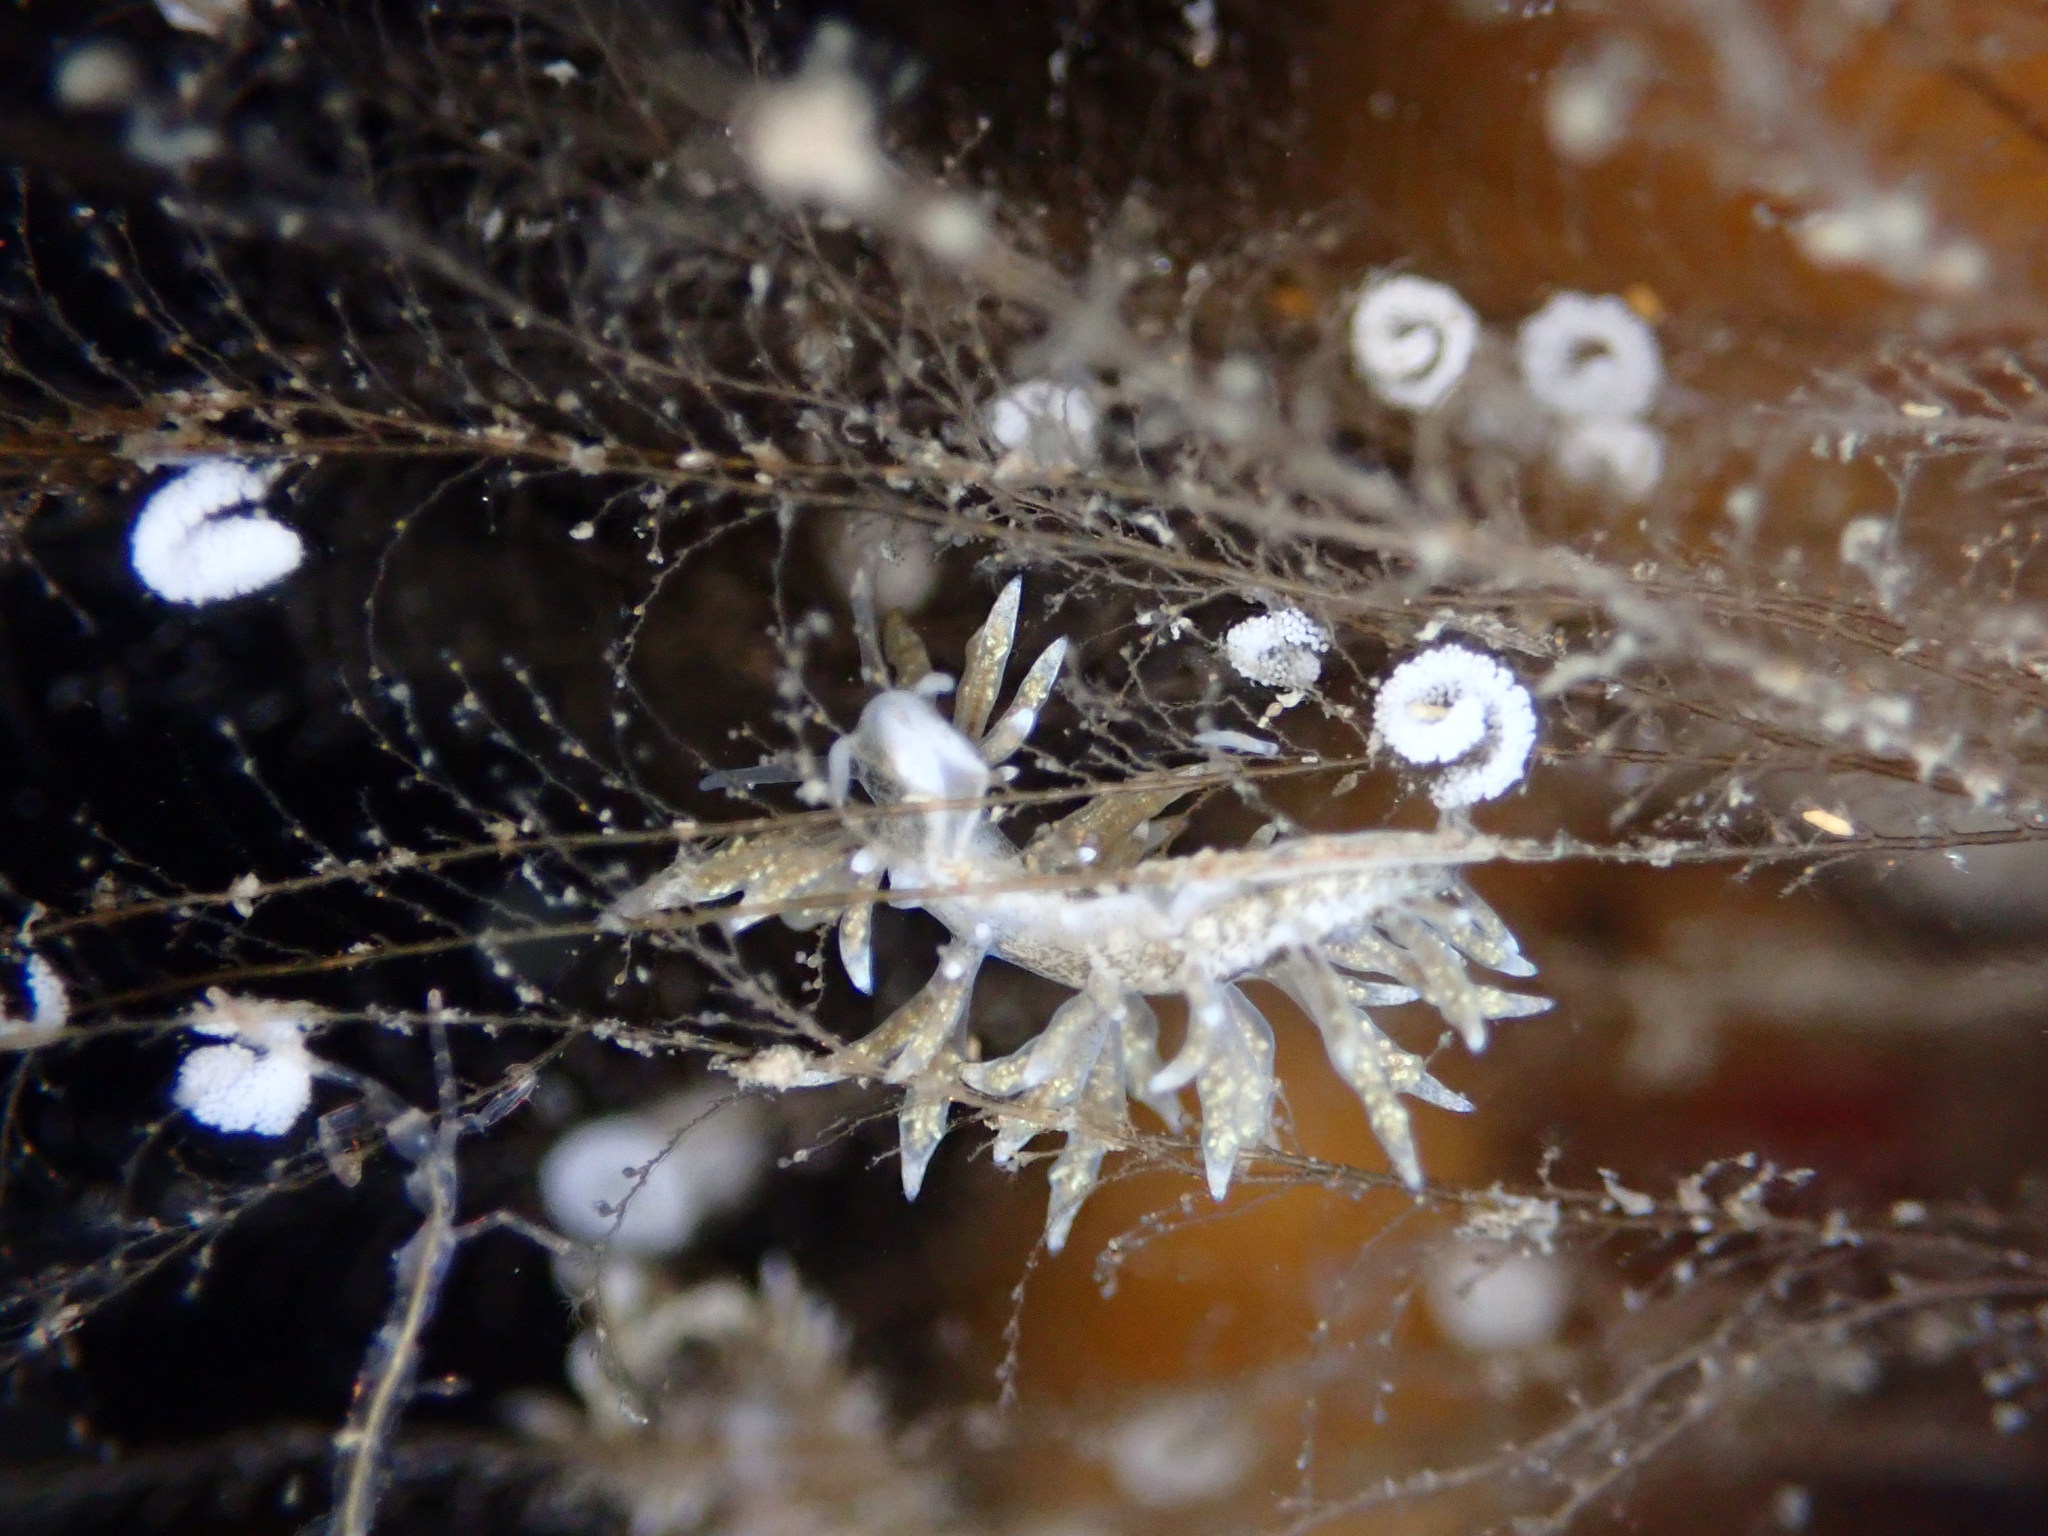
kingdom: Animalia
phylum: Mollusca
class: Gastropoda
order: Nudibranchia
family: Eubranchidae
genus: Eubranchus
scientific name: Eubranchus rustyus
